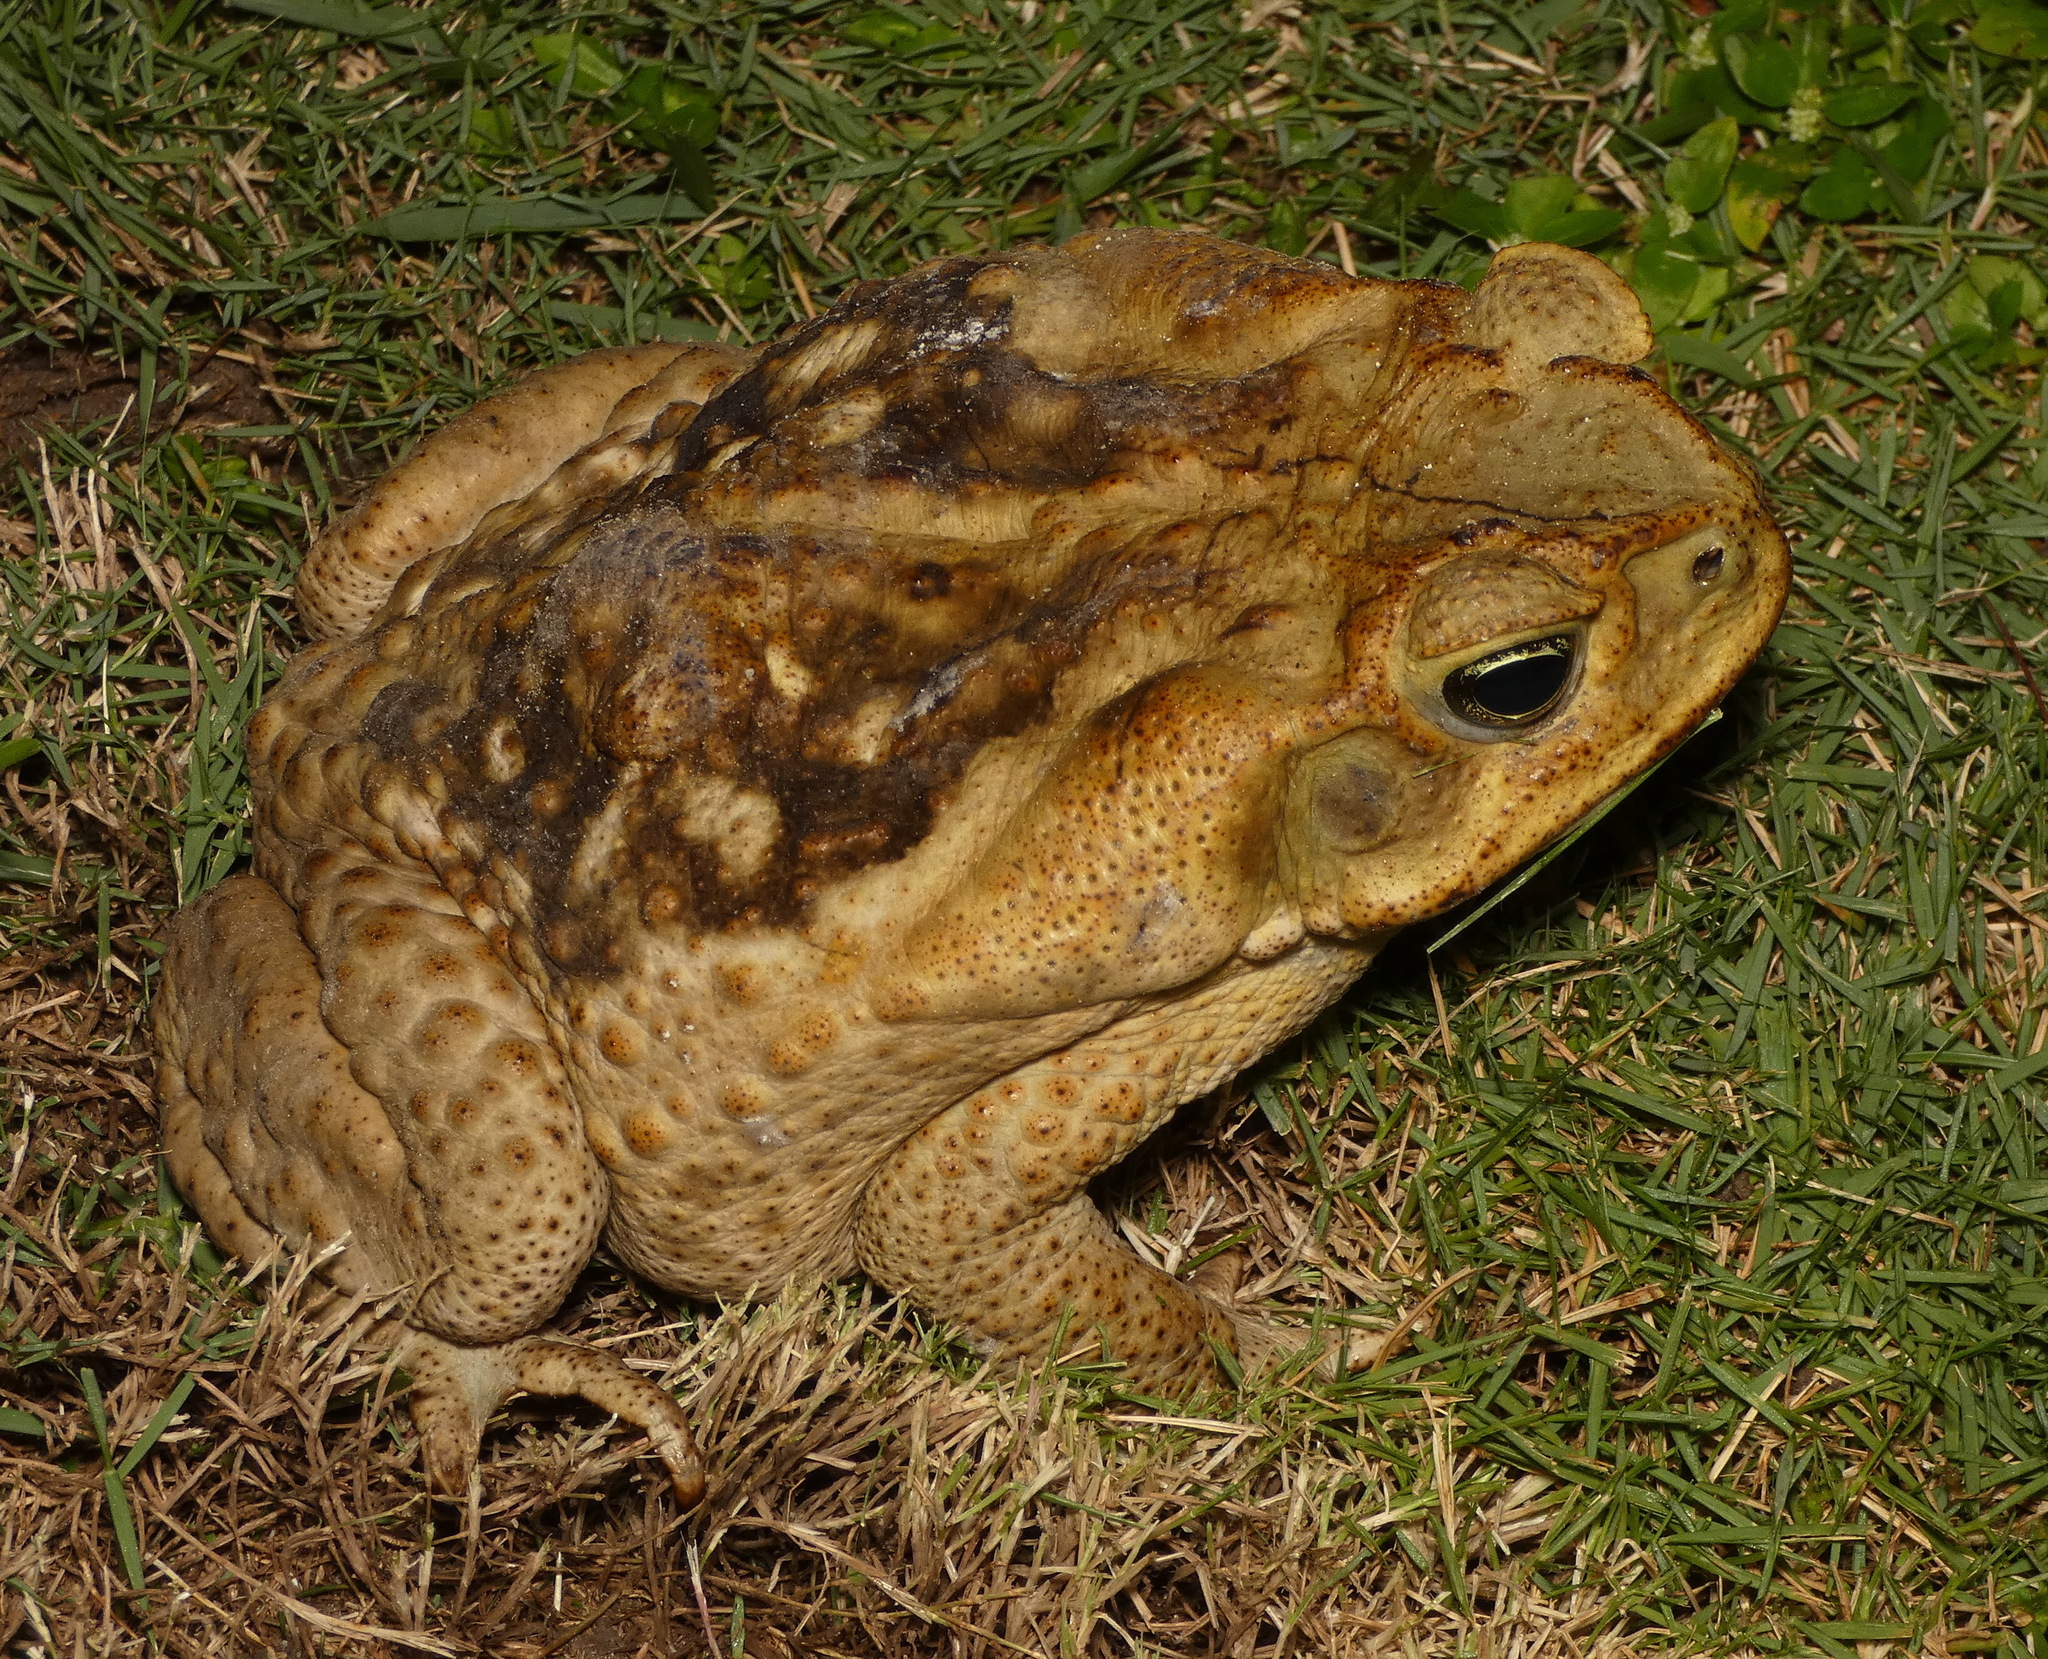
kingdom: Animalia
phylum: Chordata
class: Amphibia
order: Anura
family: Bufonidae
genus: Rhinella
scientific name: Rhinella diptycha
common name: Cope's toad
